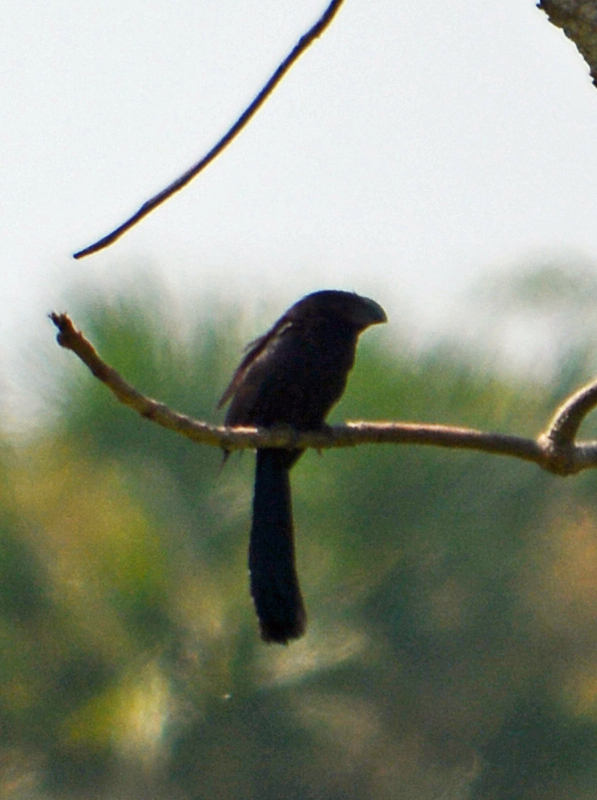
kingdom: Animalia
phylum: Chordata
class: Aves
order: Cuculiformes
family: Cuculidae
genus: Crotophaga
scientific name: Crotophaga sulcirostris
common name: Groove-billed ani
